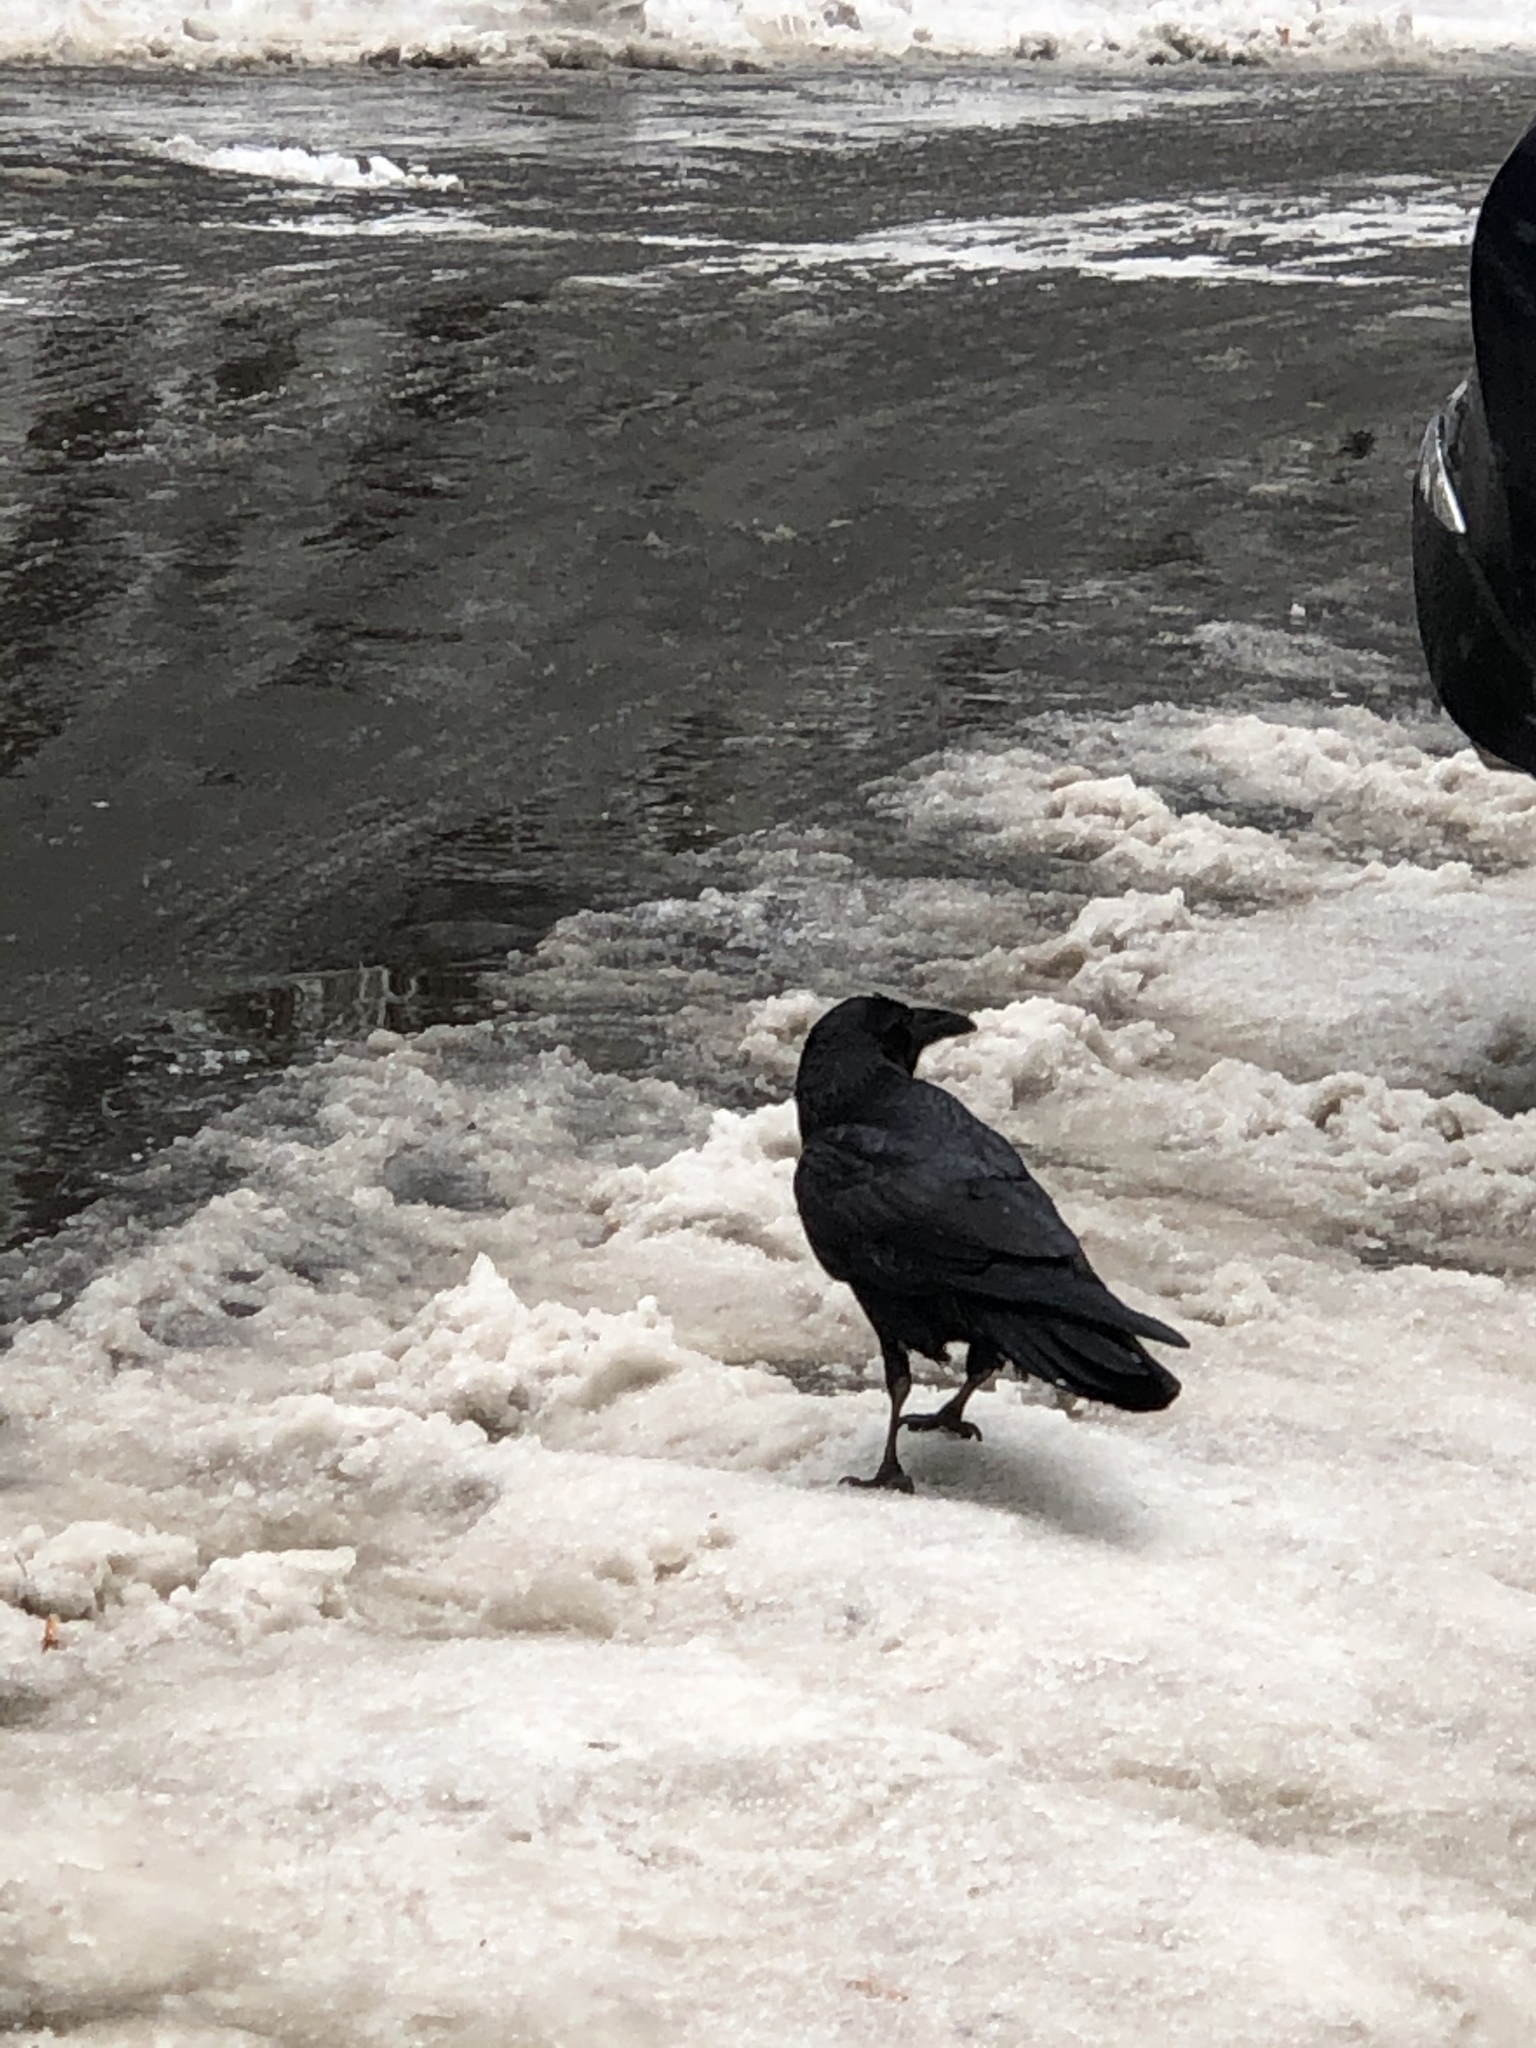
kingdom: Animalia
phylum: Chordata
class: Aves
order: Passeriformes
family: Corvidae
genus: Corvus
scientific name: Corvus corax
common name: Common raven
